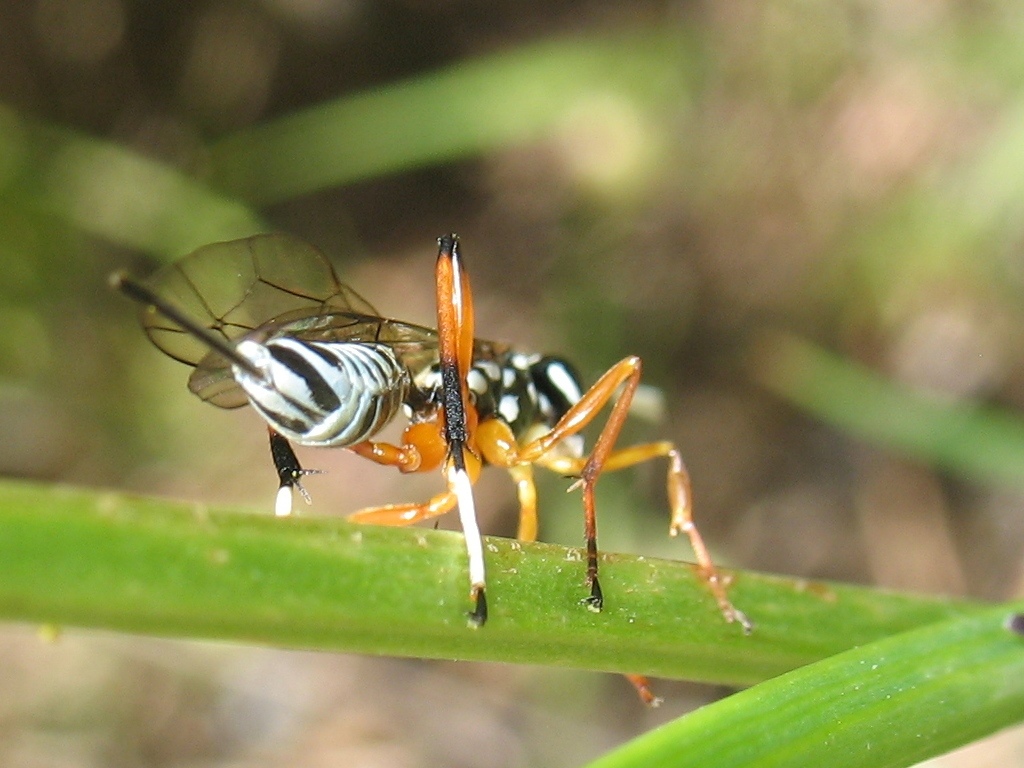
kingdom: Animalia
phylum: Arthropoda
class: Insecta
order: Hymenoptera
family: Ichneumonidae
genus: Xanthocryptus
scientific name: Xanthocryptus novozealandicus
